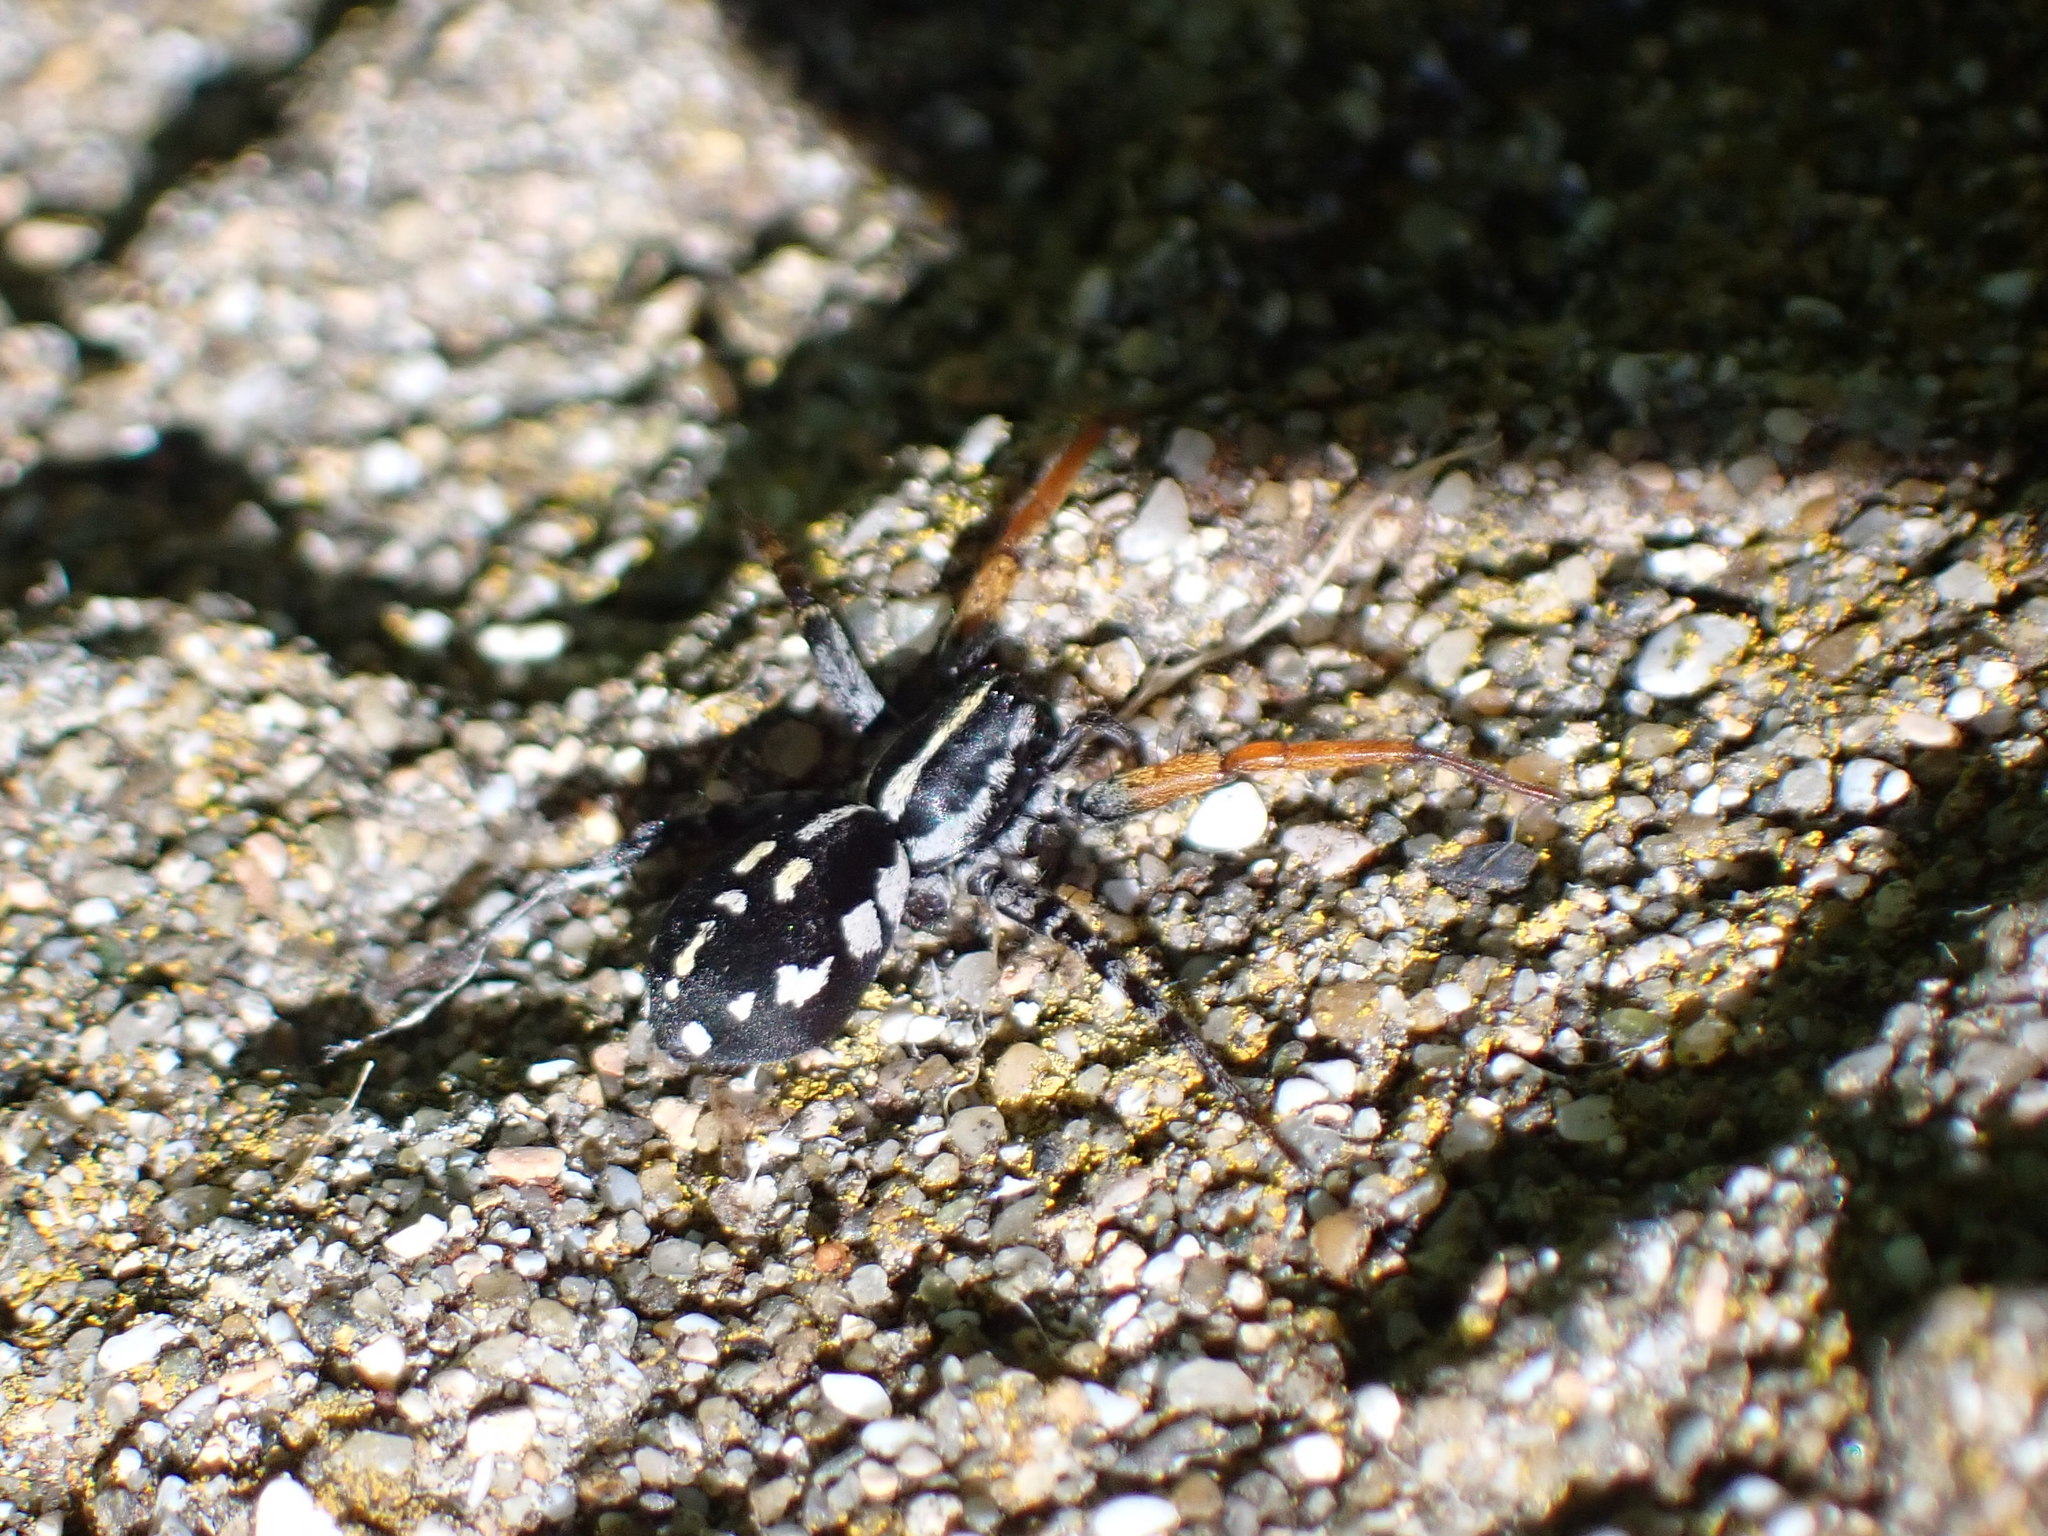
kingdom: Animalia
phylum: Arthropoda
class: Arachnida
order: Araneae
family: Corinnidae
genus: Nyssus
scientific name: Nyssus coloripes
